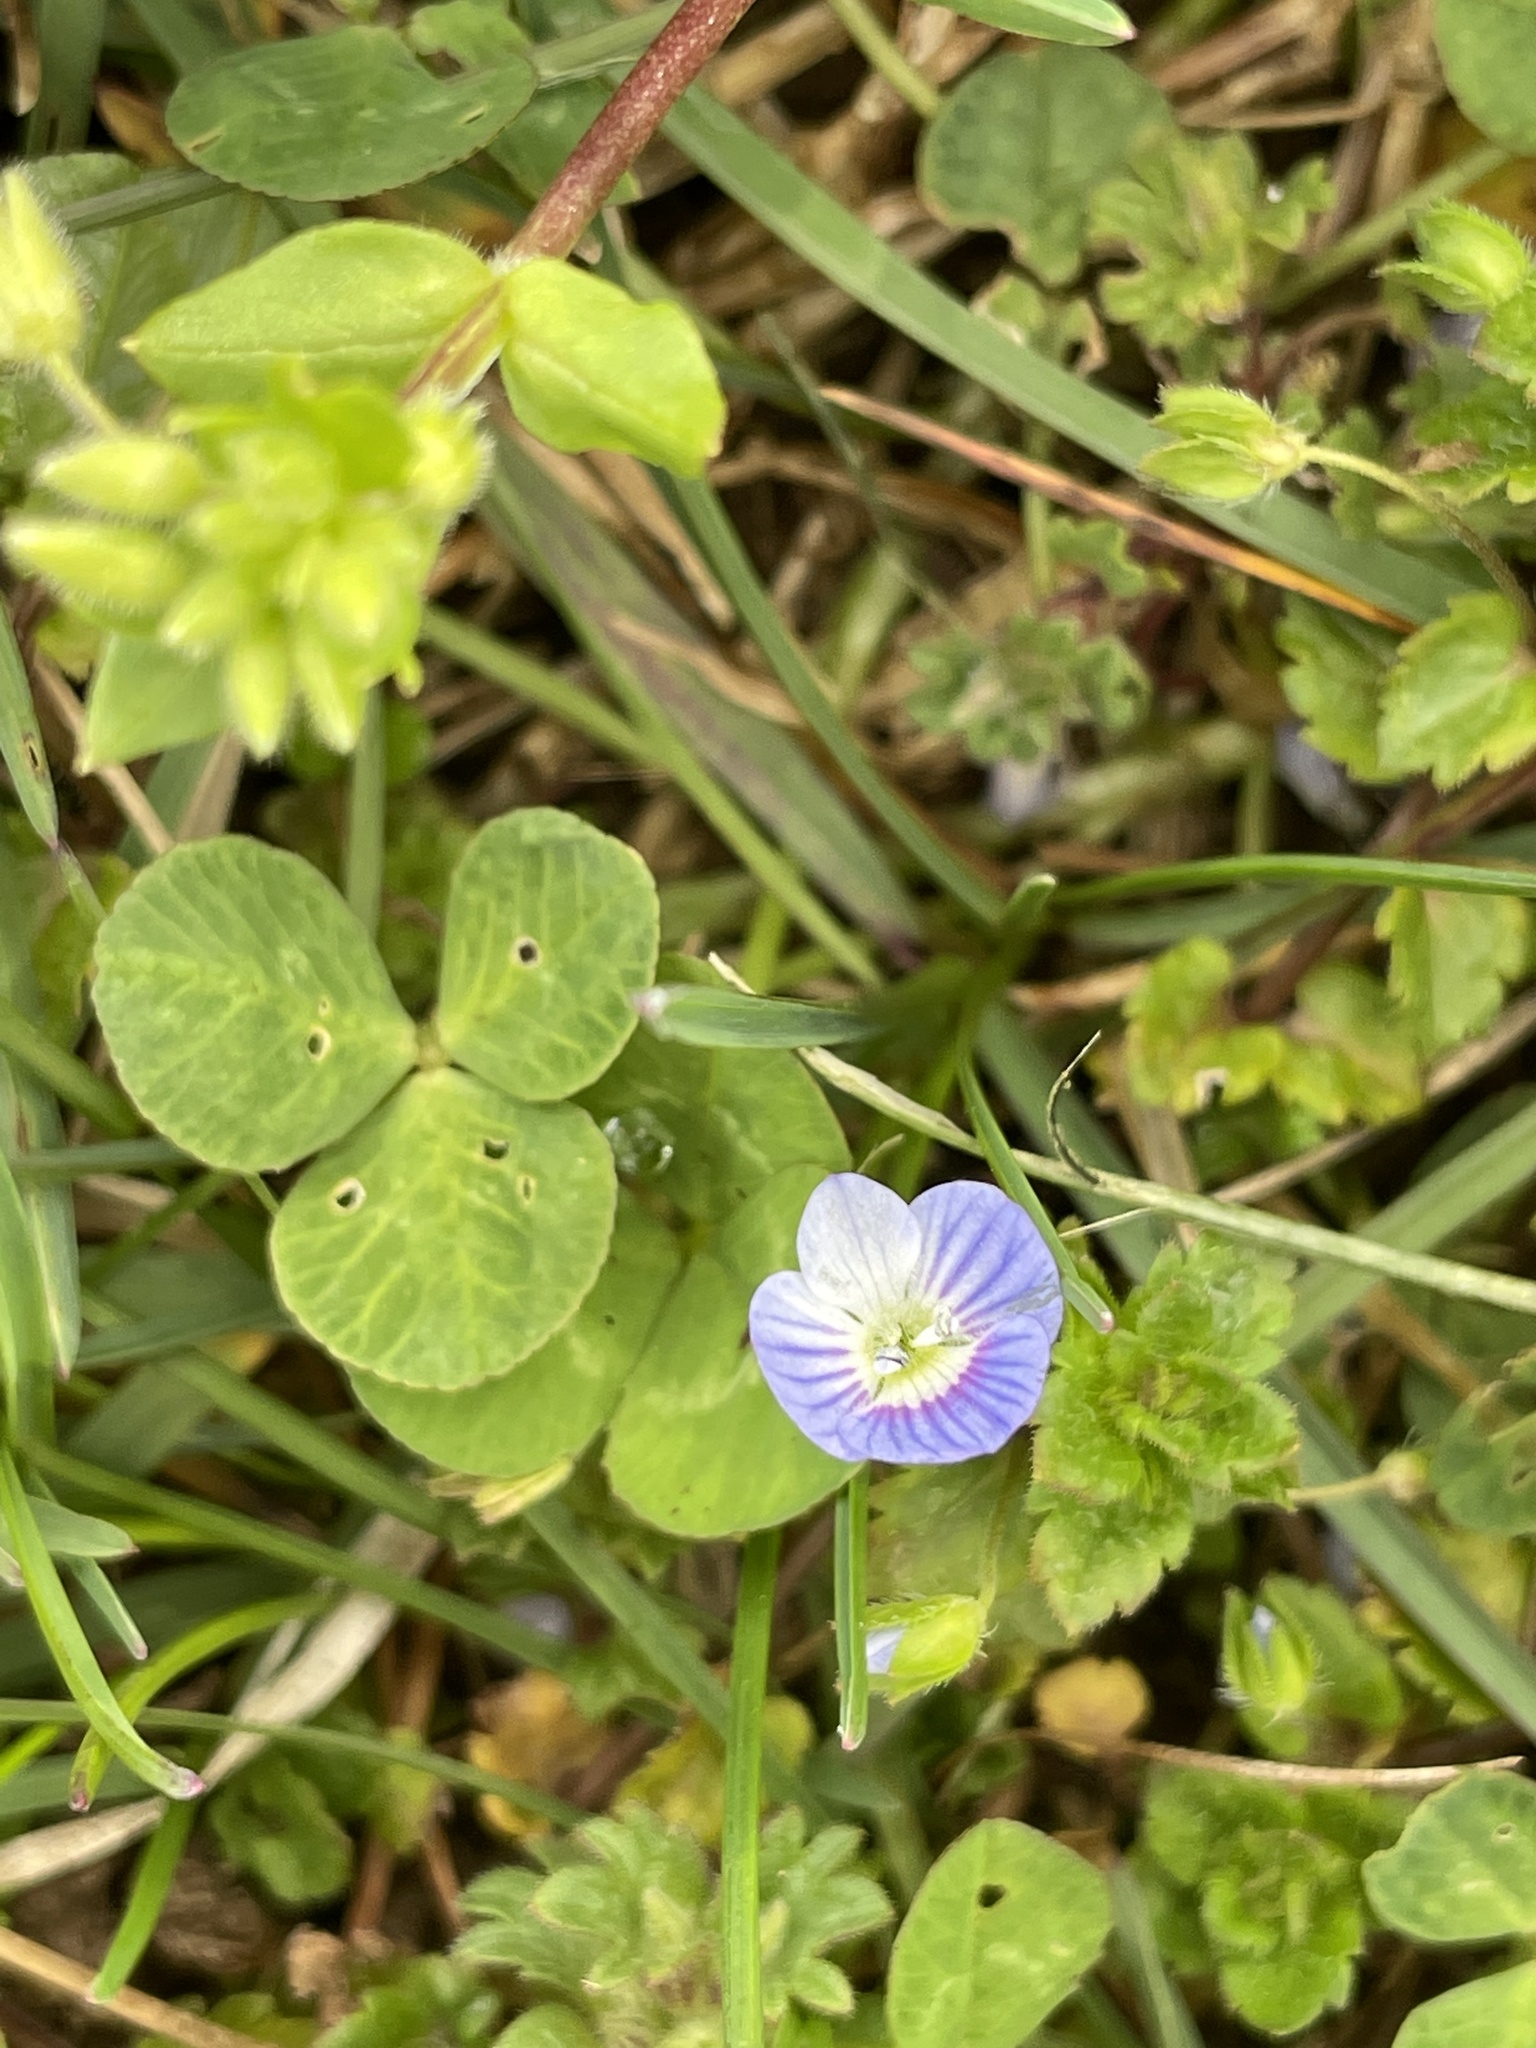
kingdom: Plantae
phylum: Tracheophyta
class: Magnoliopsida
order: Lamiales
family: Plantaginaceae
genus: Veronica
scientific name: Veronica persica
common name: Common field-speedwell
